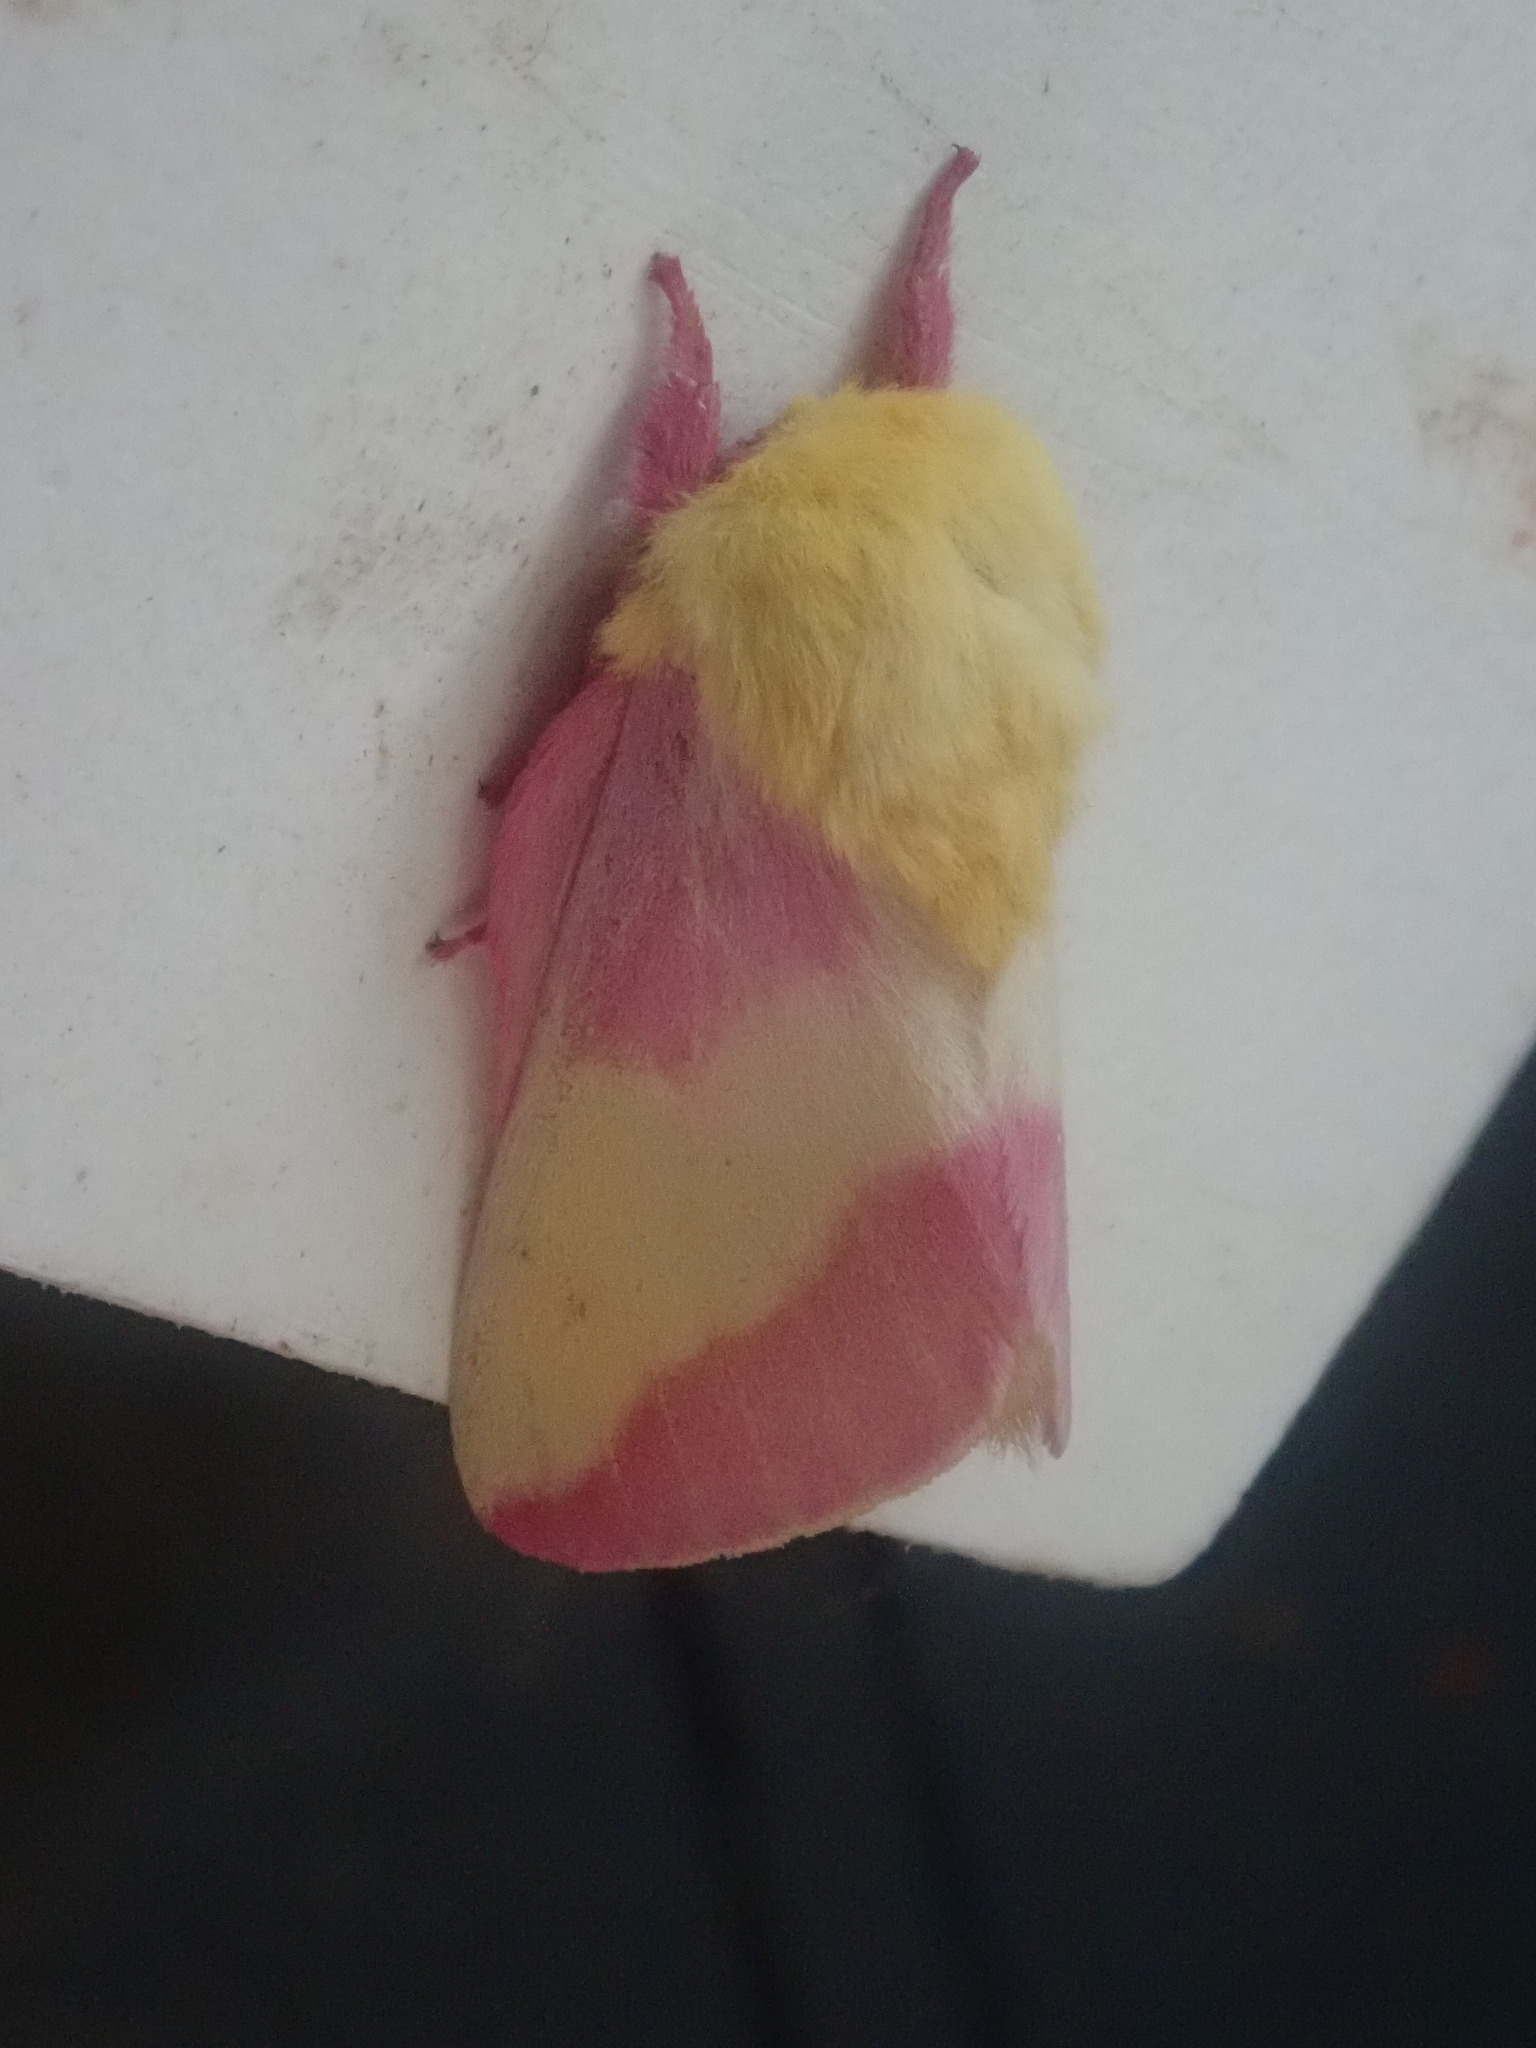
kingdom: Animalia
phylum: Arthropoda
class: Insecta
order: Lepidoptera
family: Saturniidae
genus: Dryocampa
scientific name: Dryocampa rubicunda
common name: Rosy maple moth
